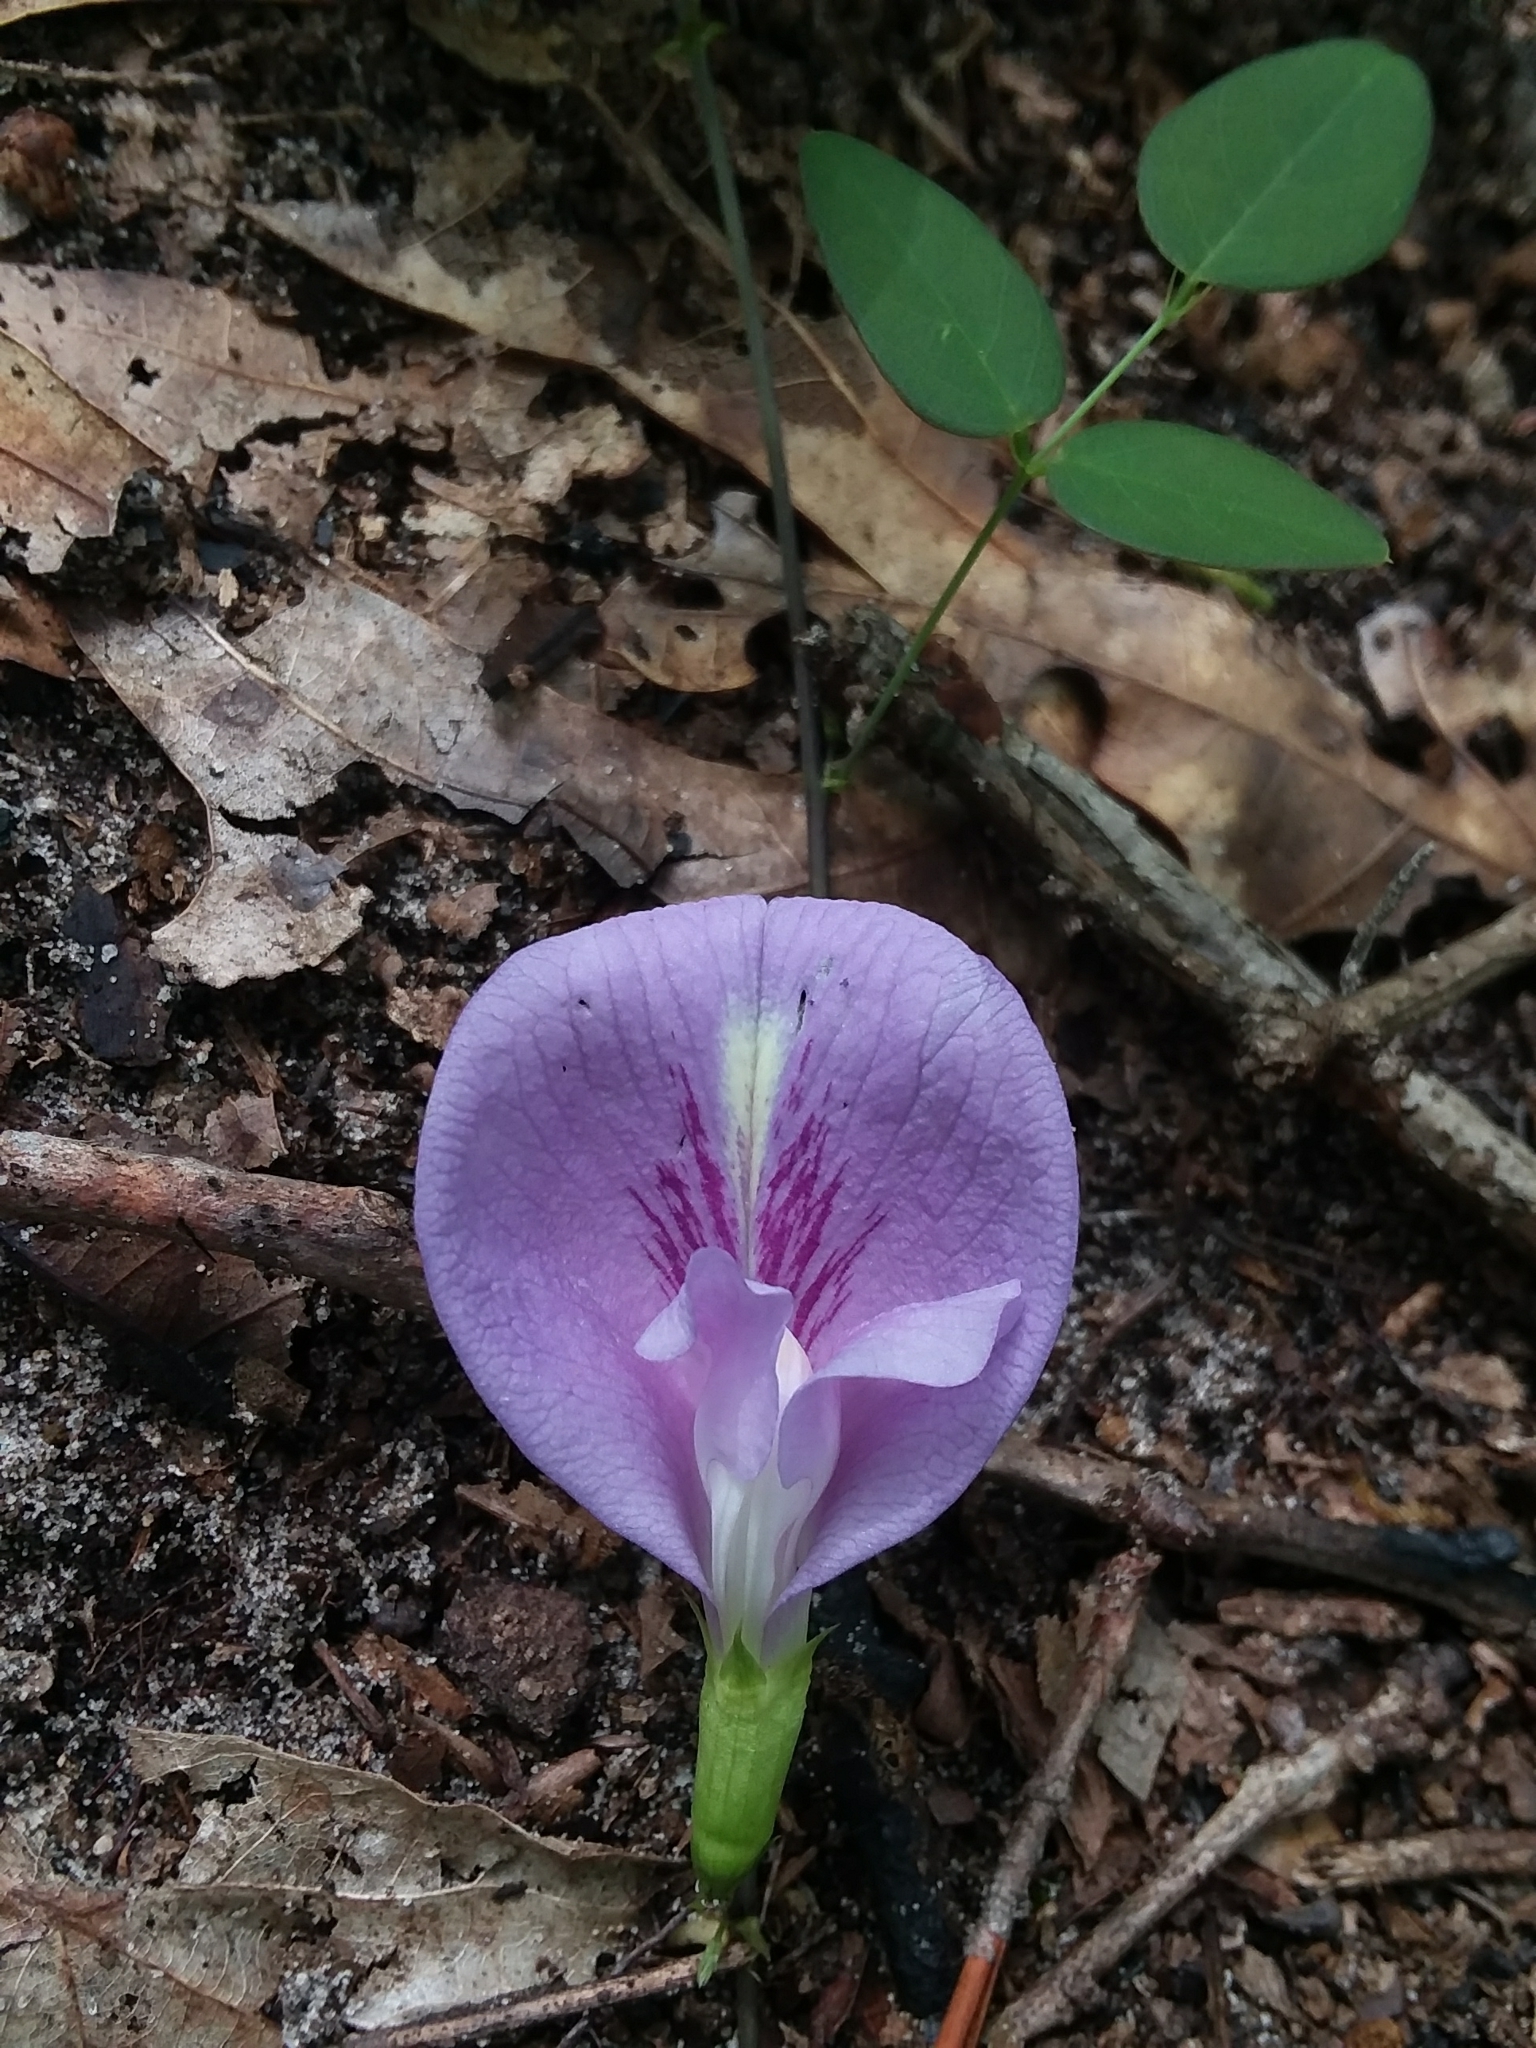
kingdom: Plantae
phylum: Tracheophyta
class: Magnoliopsida
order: Fabales
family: Fabaceae
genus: Clitoria
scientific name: Clitoria mariana
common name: Butterfly-pea
